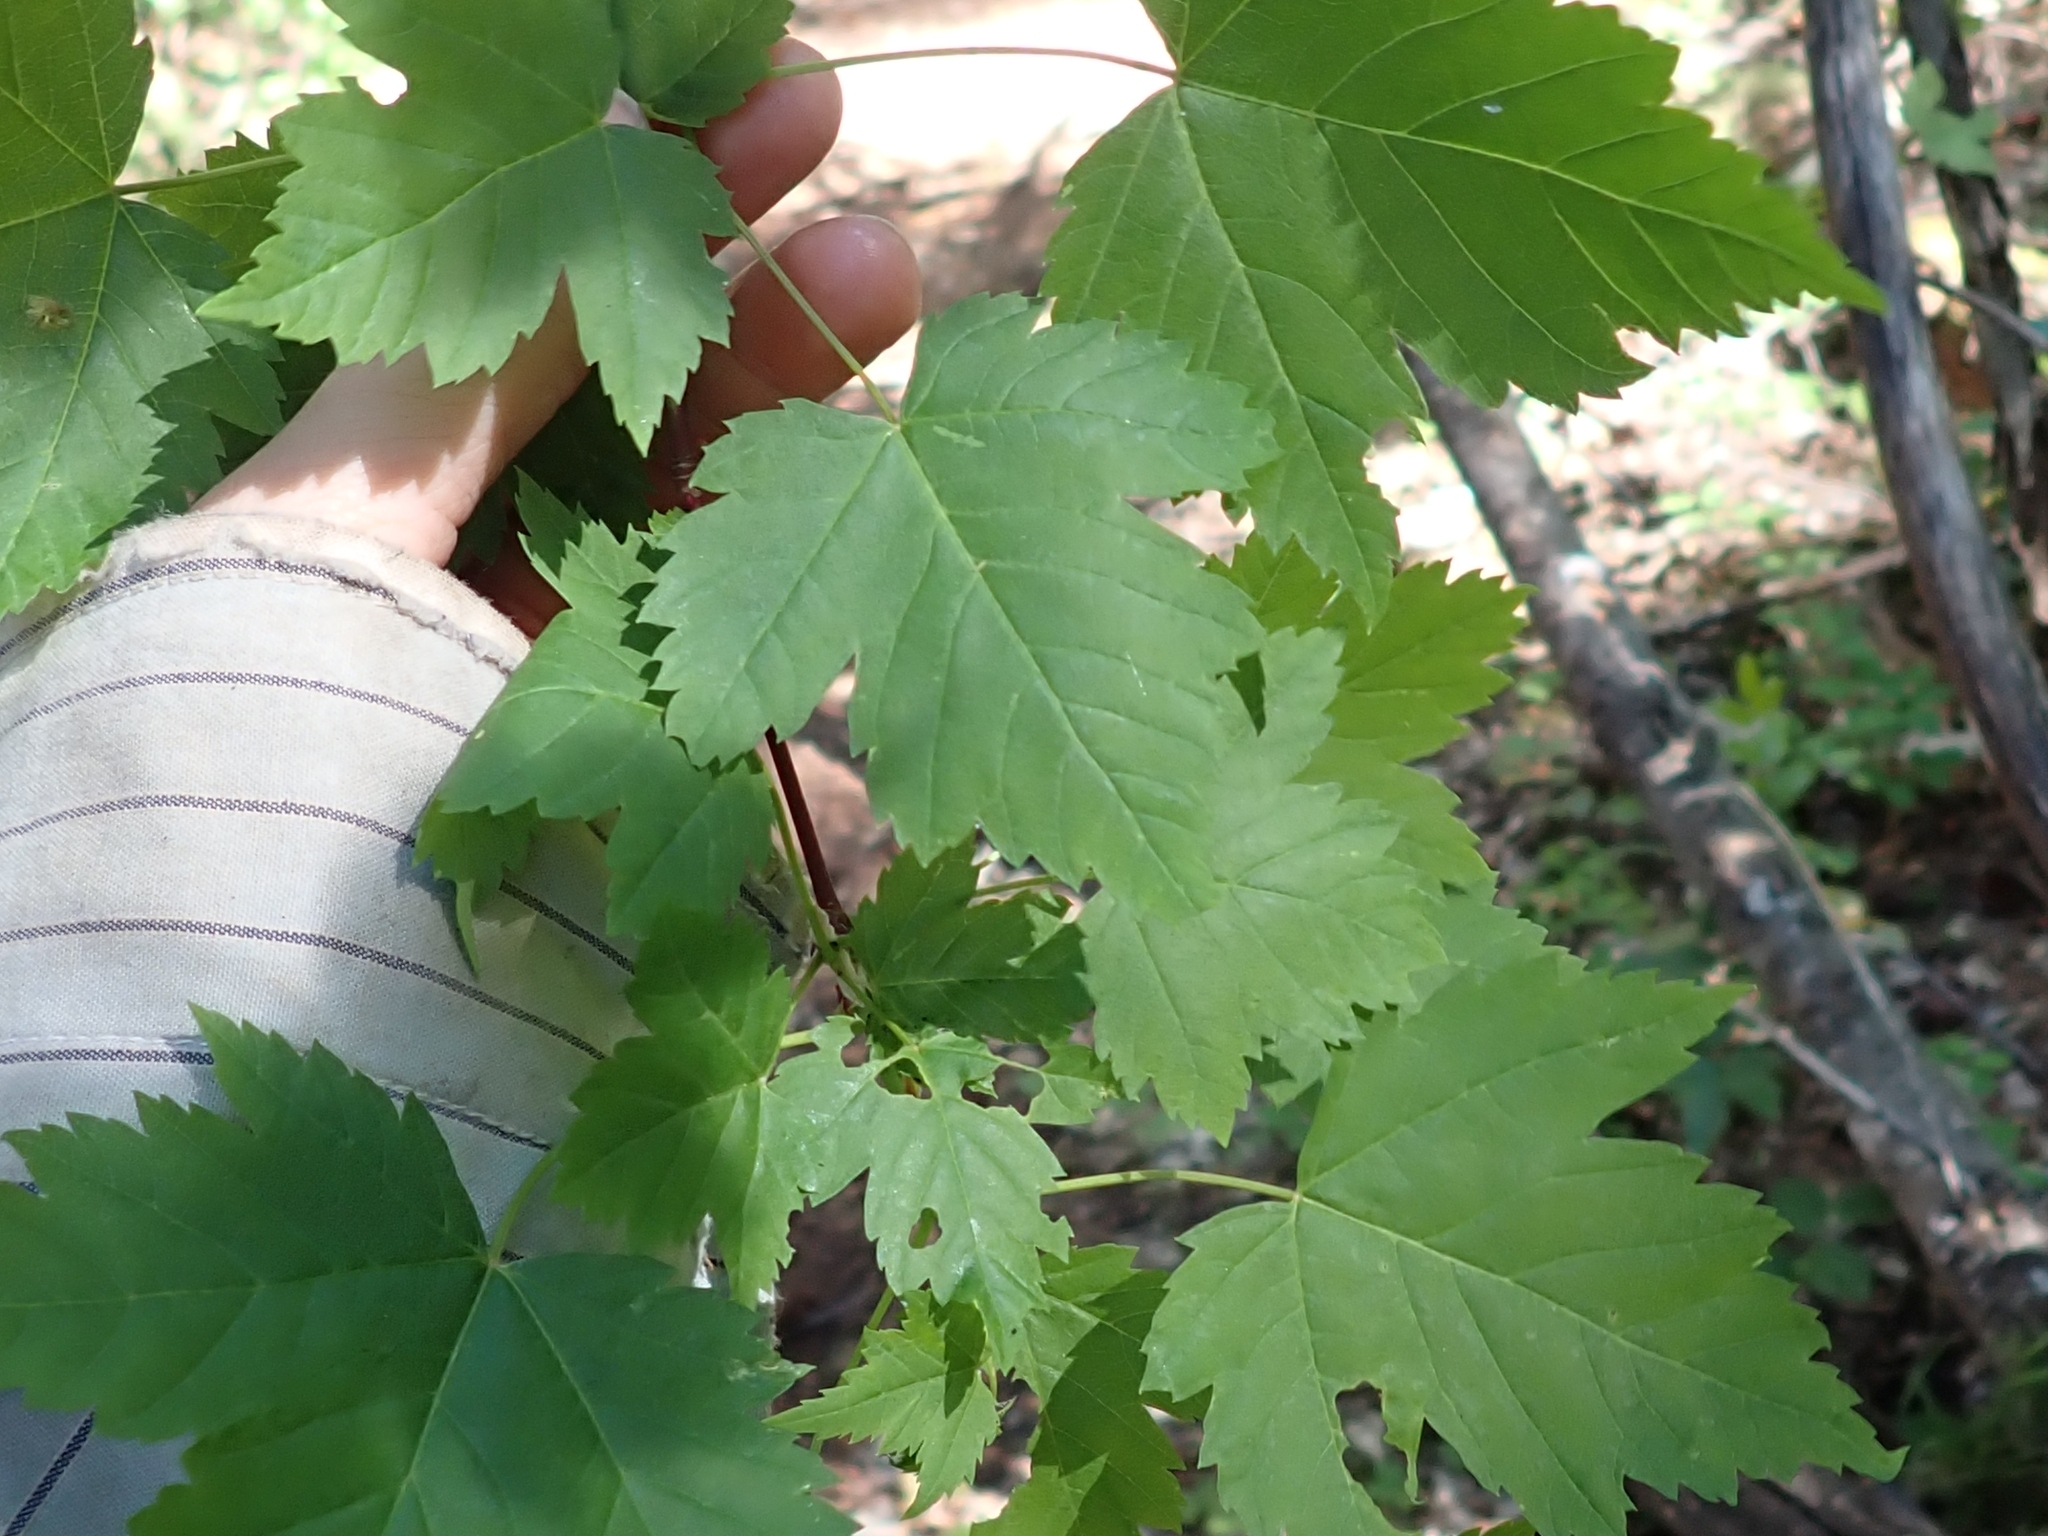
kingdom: Plantae
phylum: Tracheophyta
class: Magnoliopsida
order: Sapindales
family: Sapindaceae
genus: Acer
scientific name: Acer glabrum
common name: Rocky mountain maple
